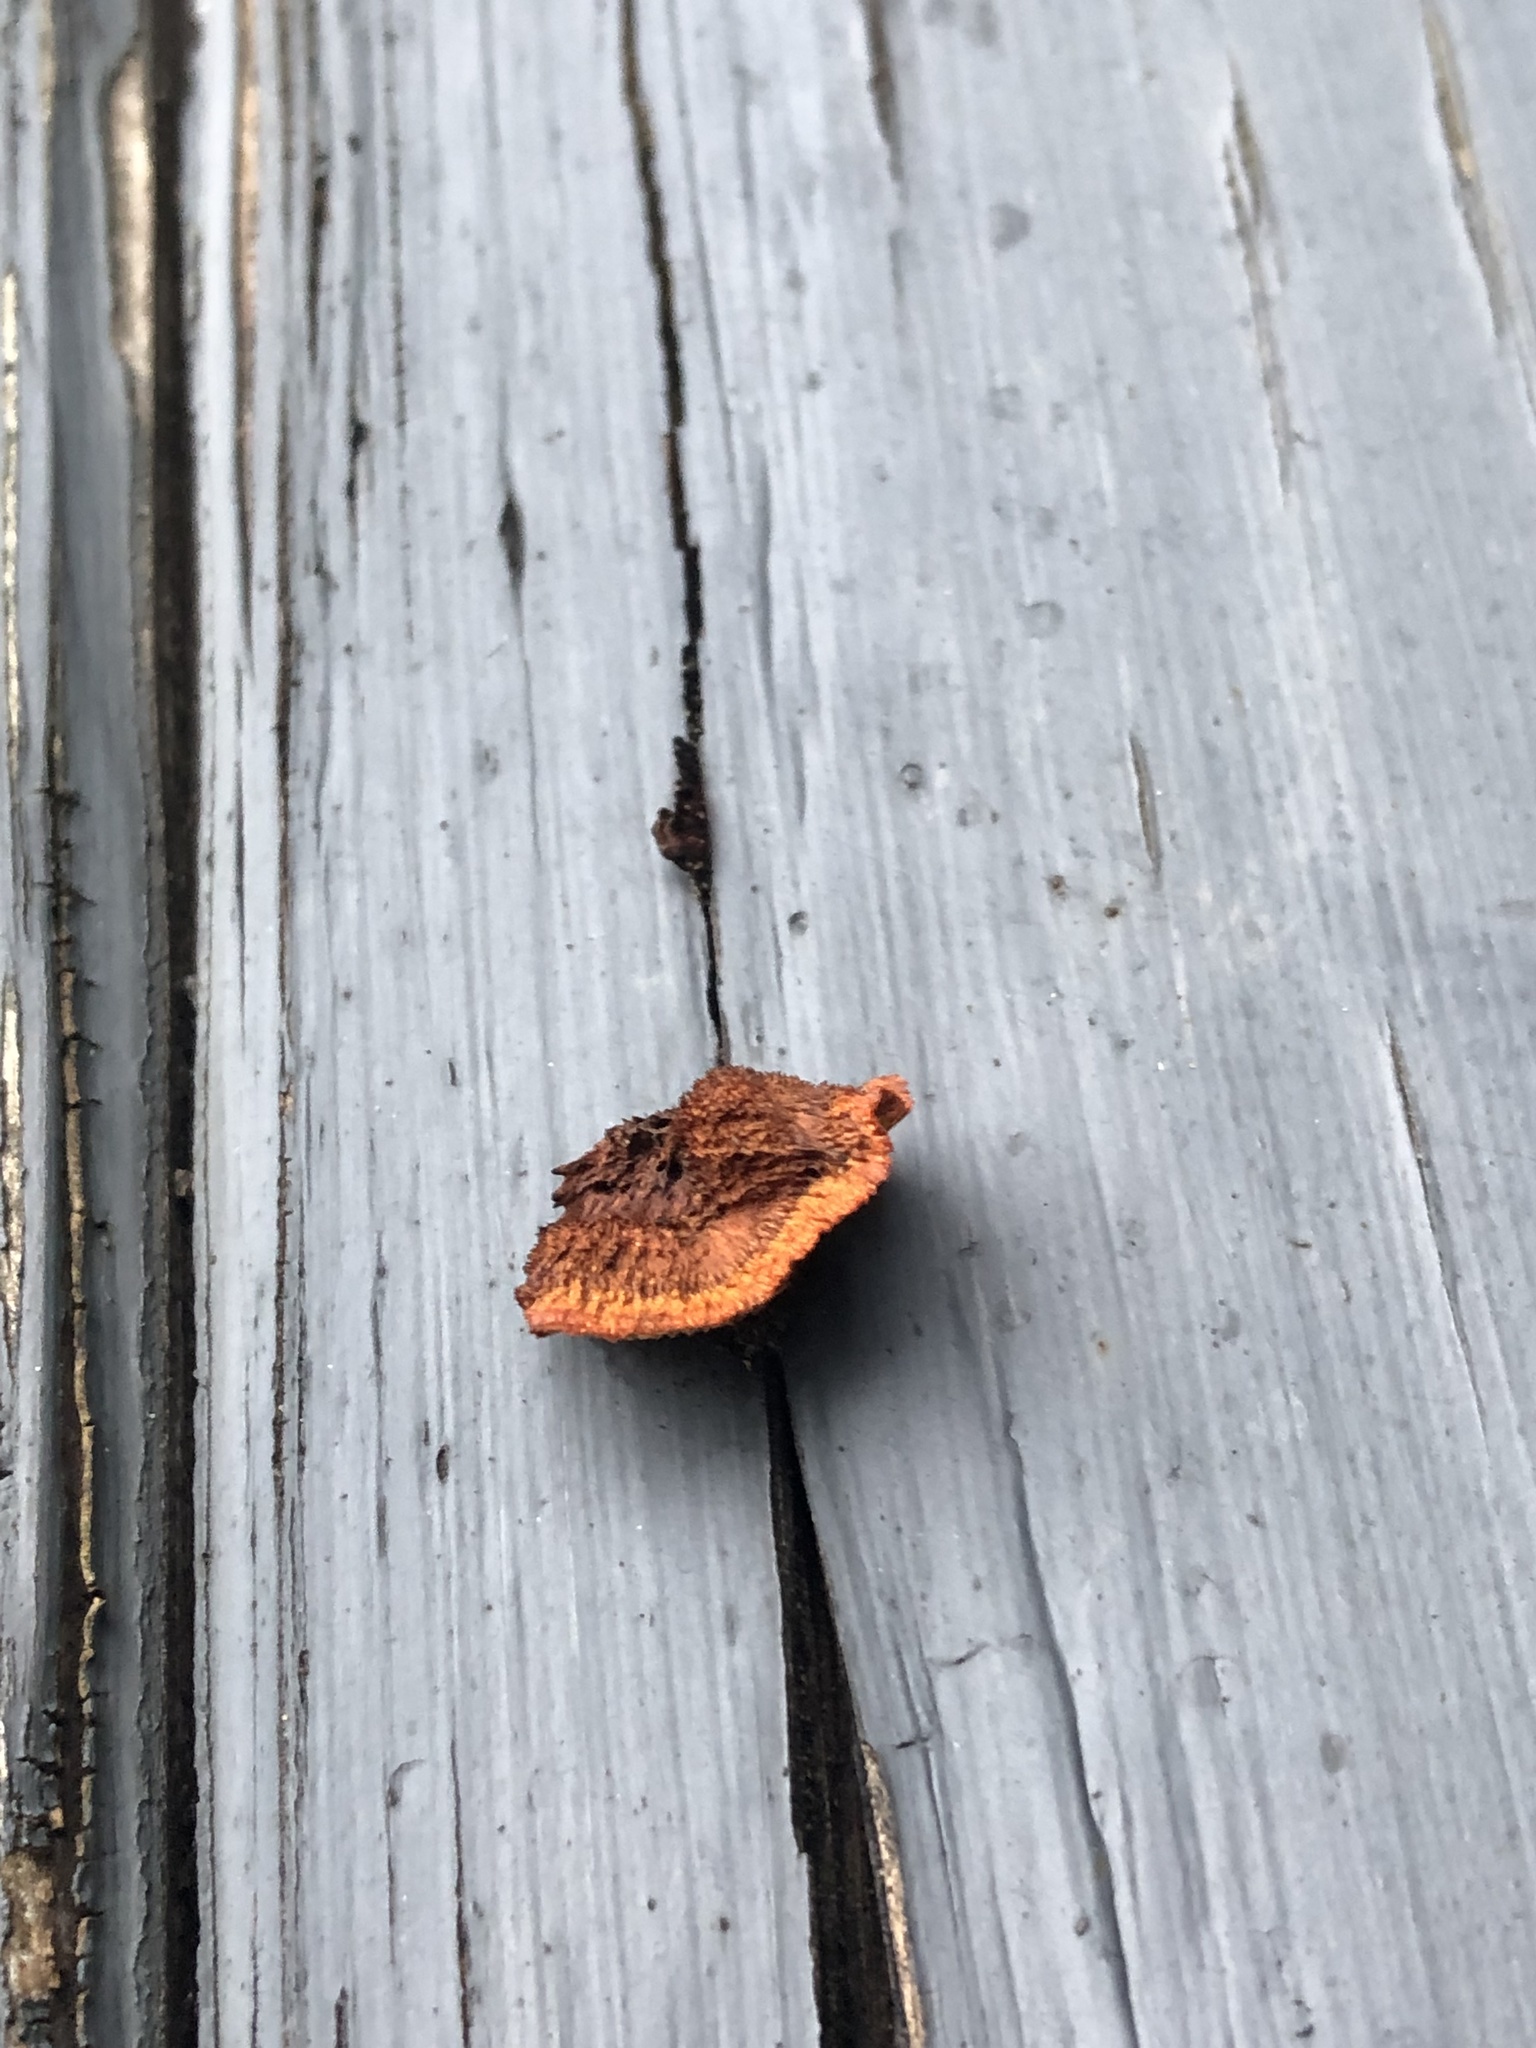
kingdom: Fungi
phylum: Basidiomycota
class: Agaricomycetes
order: Gloeophyllales
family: Gloeophyllaceae
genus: Gloeophyllum
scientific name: Gloeophyllum sepiarium
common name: Conifer mazegill
